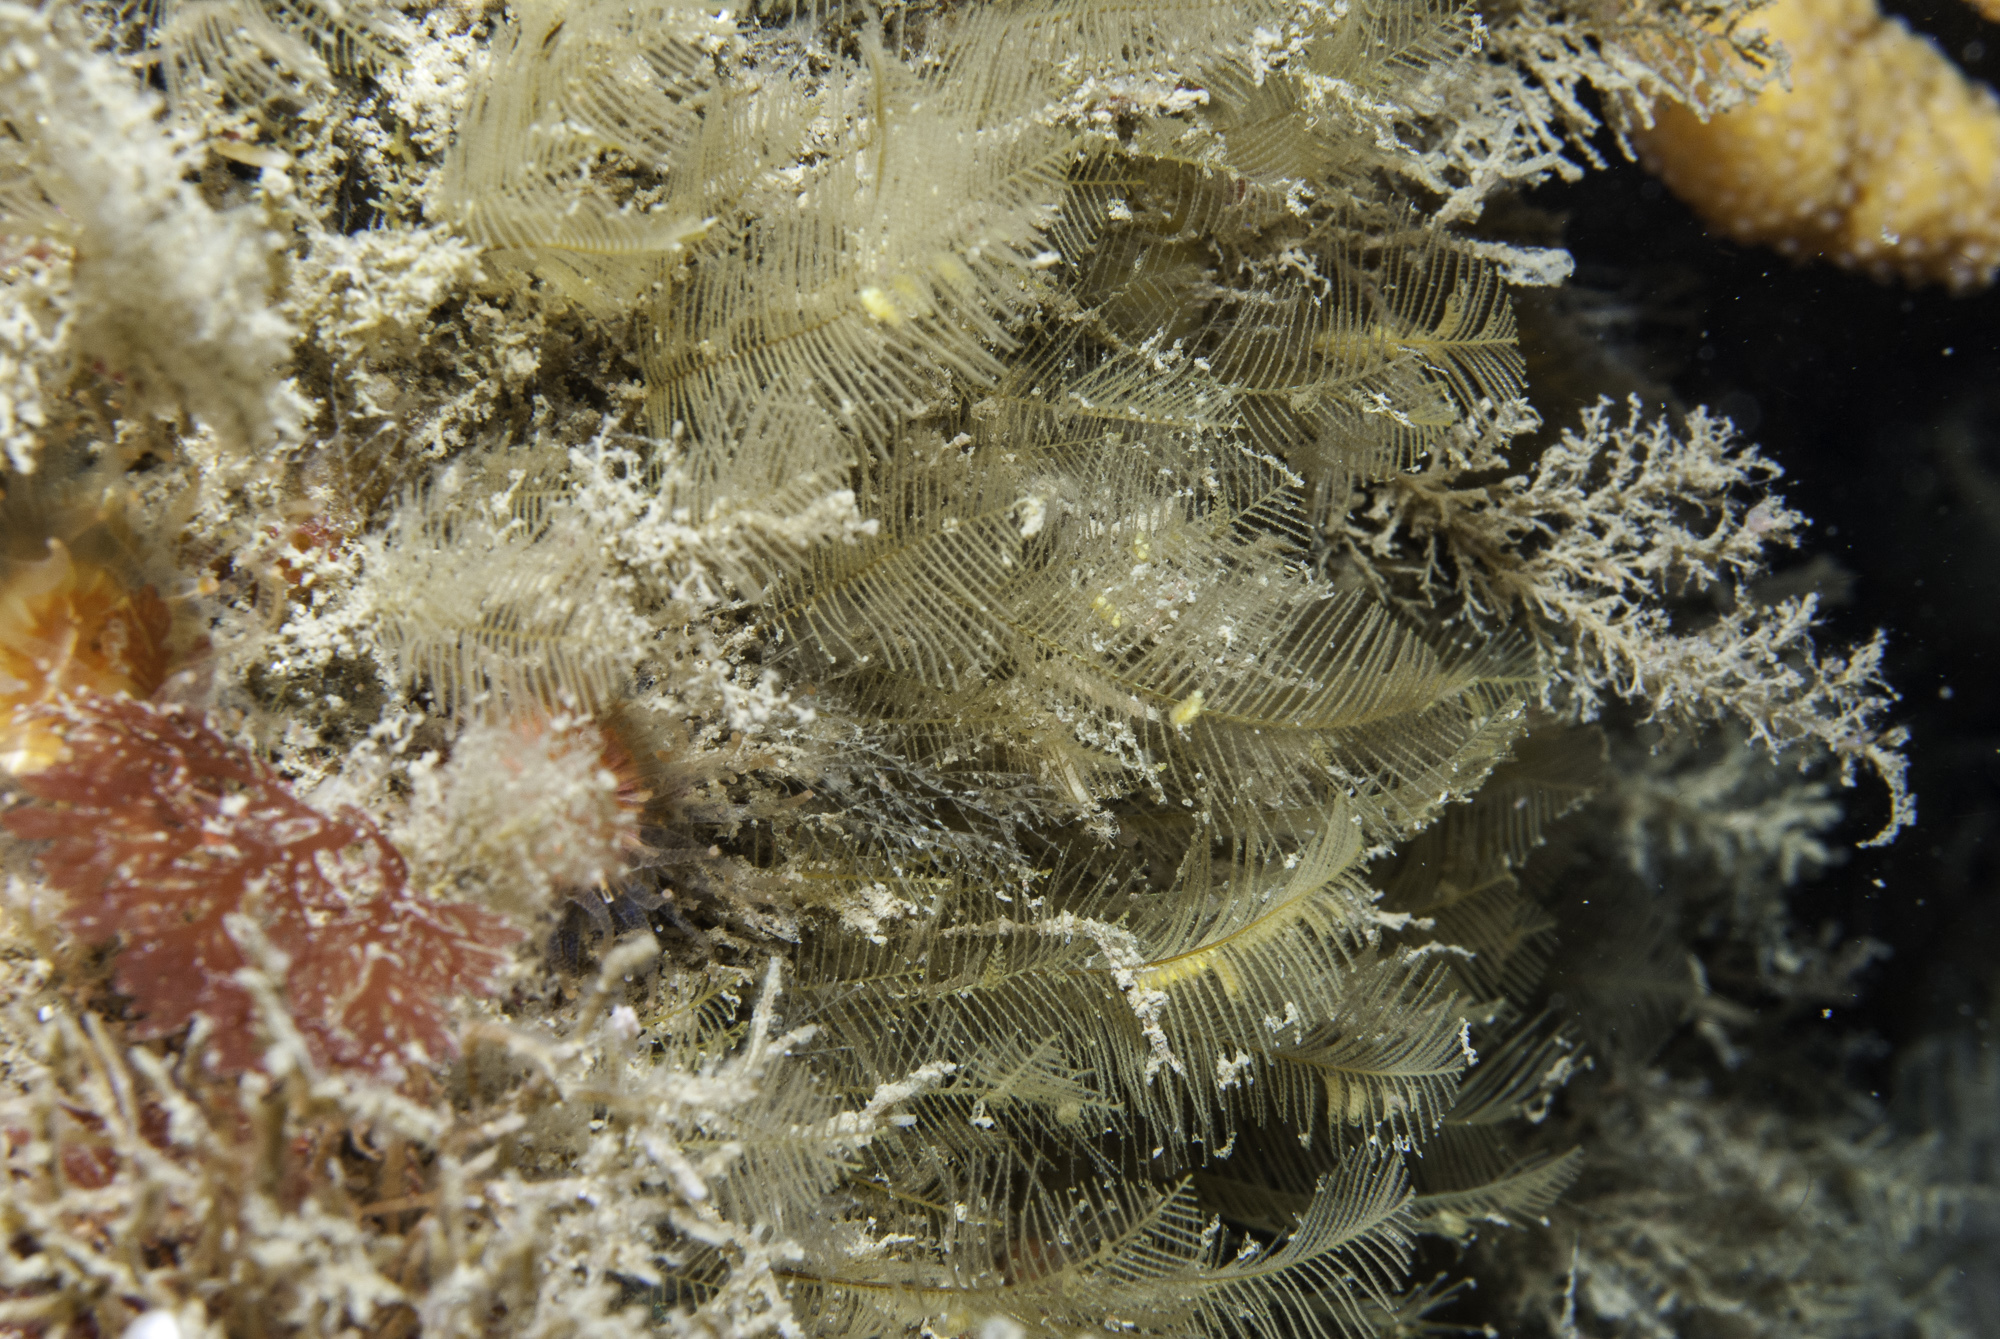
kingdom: Animalia
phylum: Cnidaria
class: Hydrozoa
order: Leptothecata
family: Aglaopheniidae
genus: Aglaophenia
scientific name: Aglaophenia tubulifera
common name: Plume hydroid
